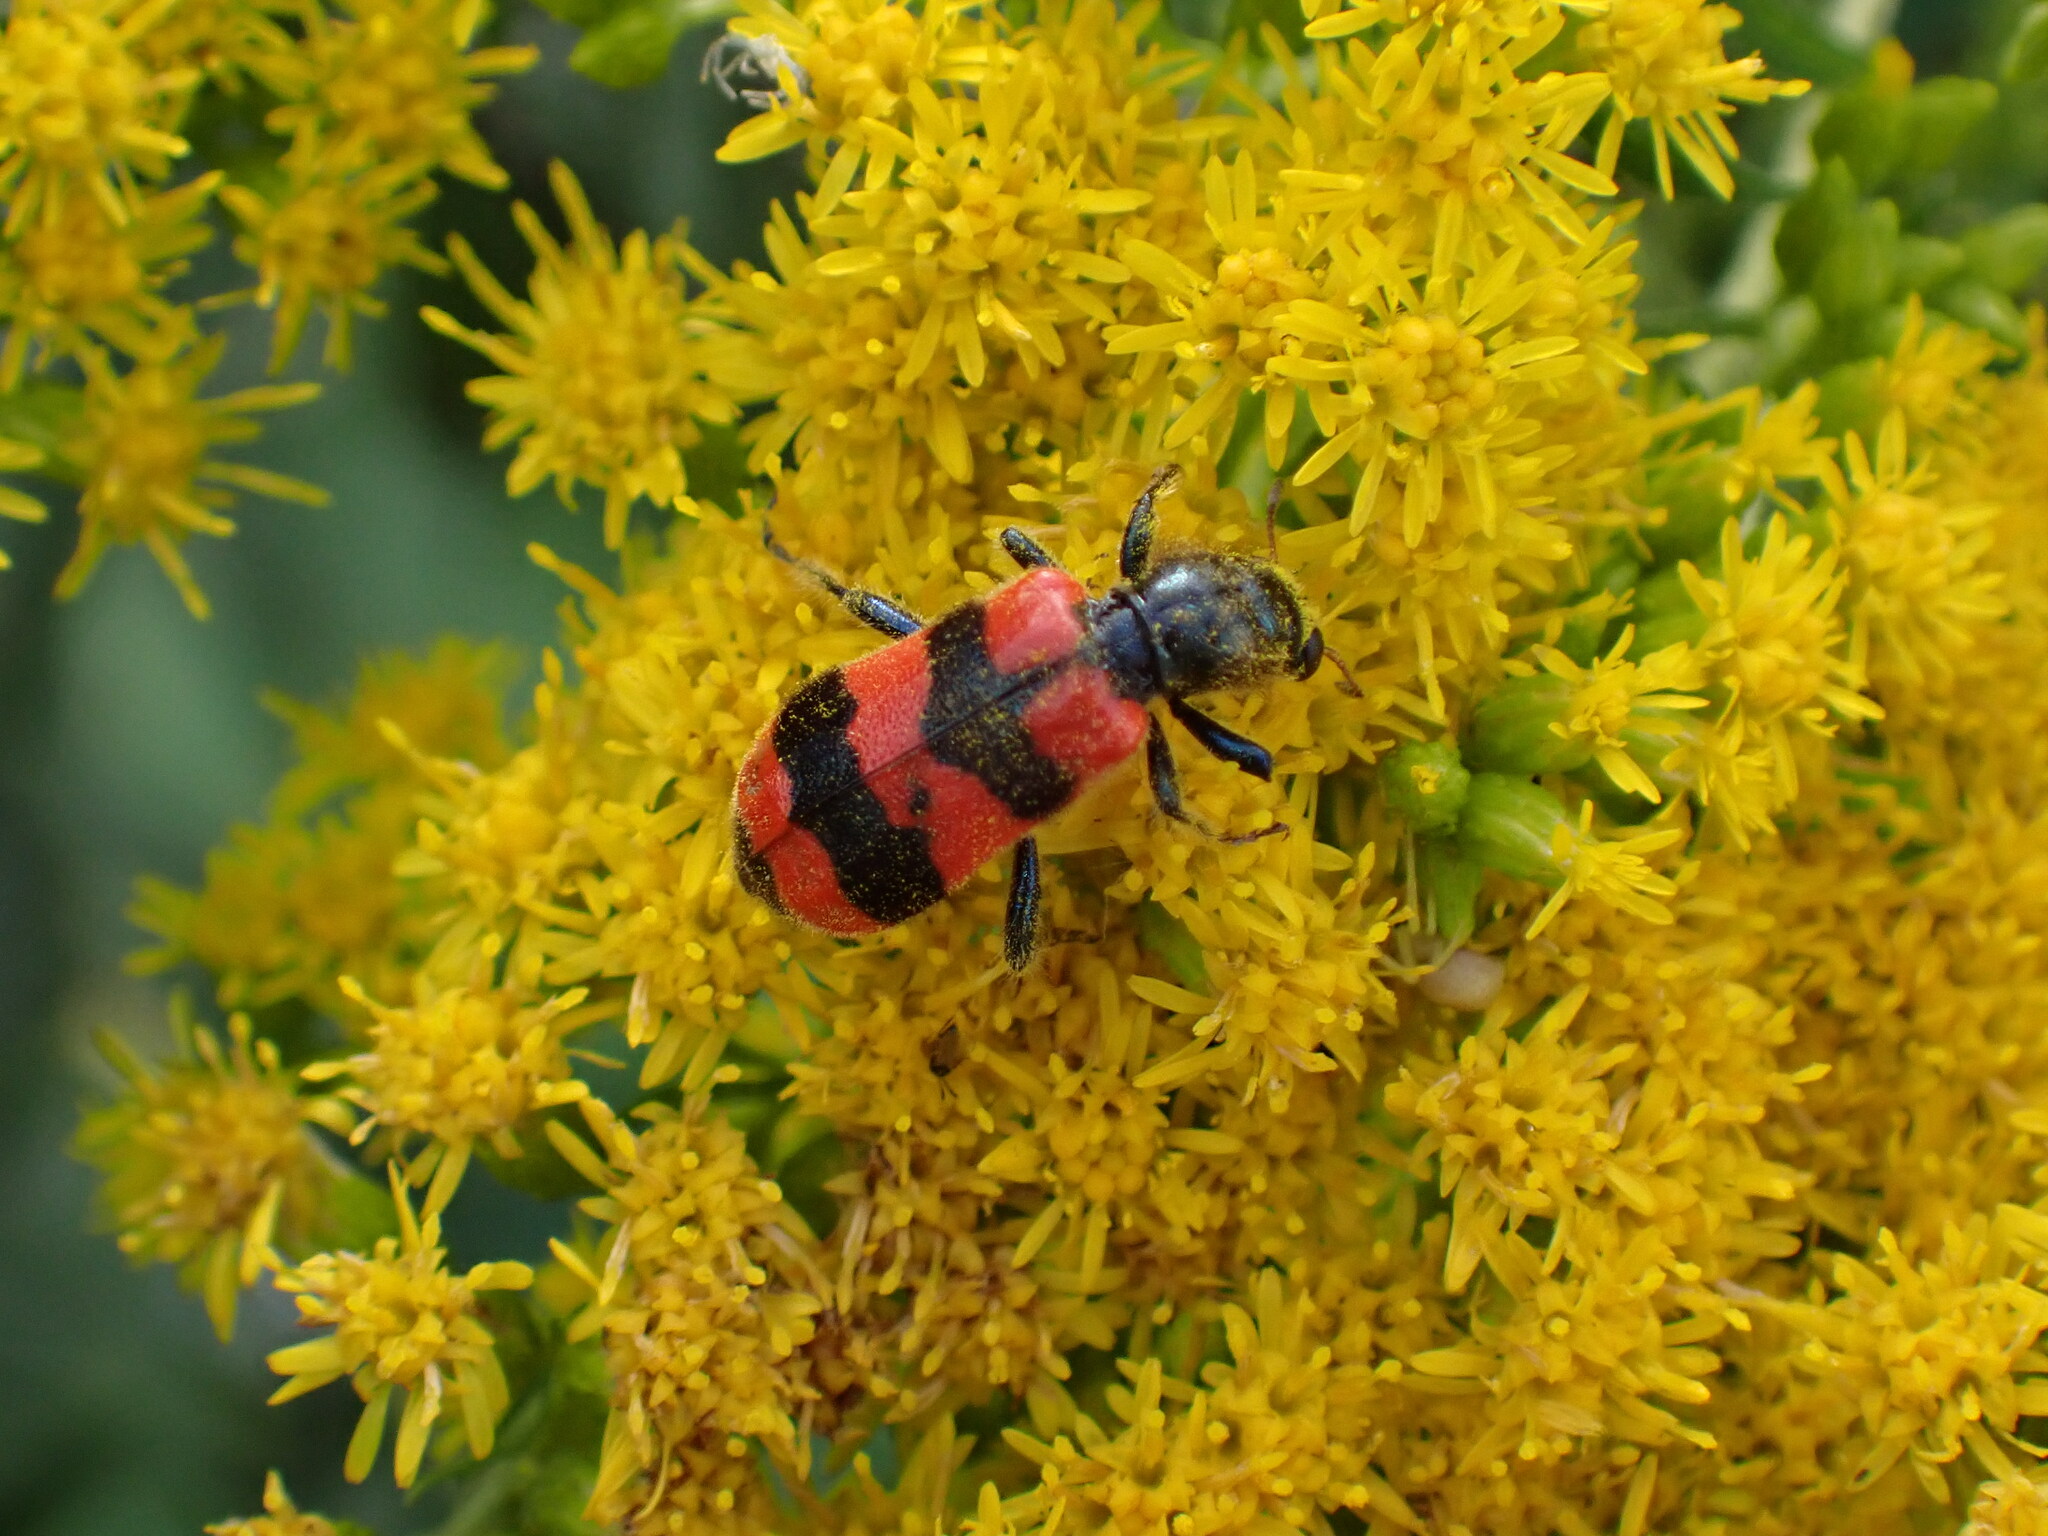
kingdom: Animalia
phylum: Arthropoda
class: Insecta
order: Coleoptera
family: Cleridae
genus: Trichodes
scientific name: Trichodes apiarius
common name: Bee-eating beetle
